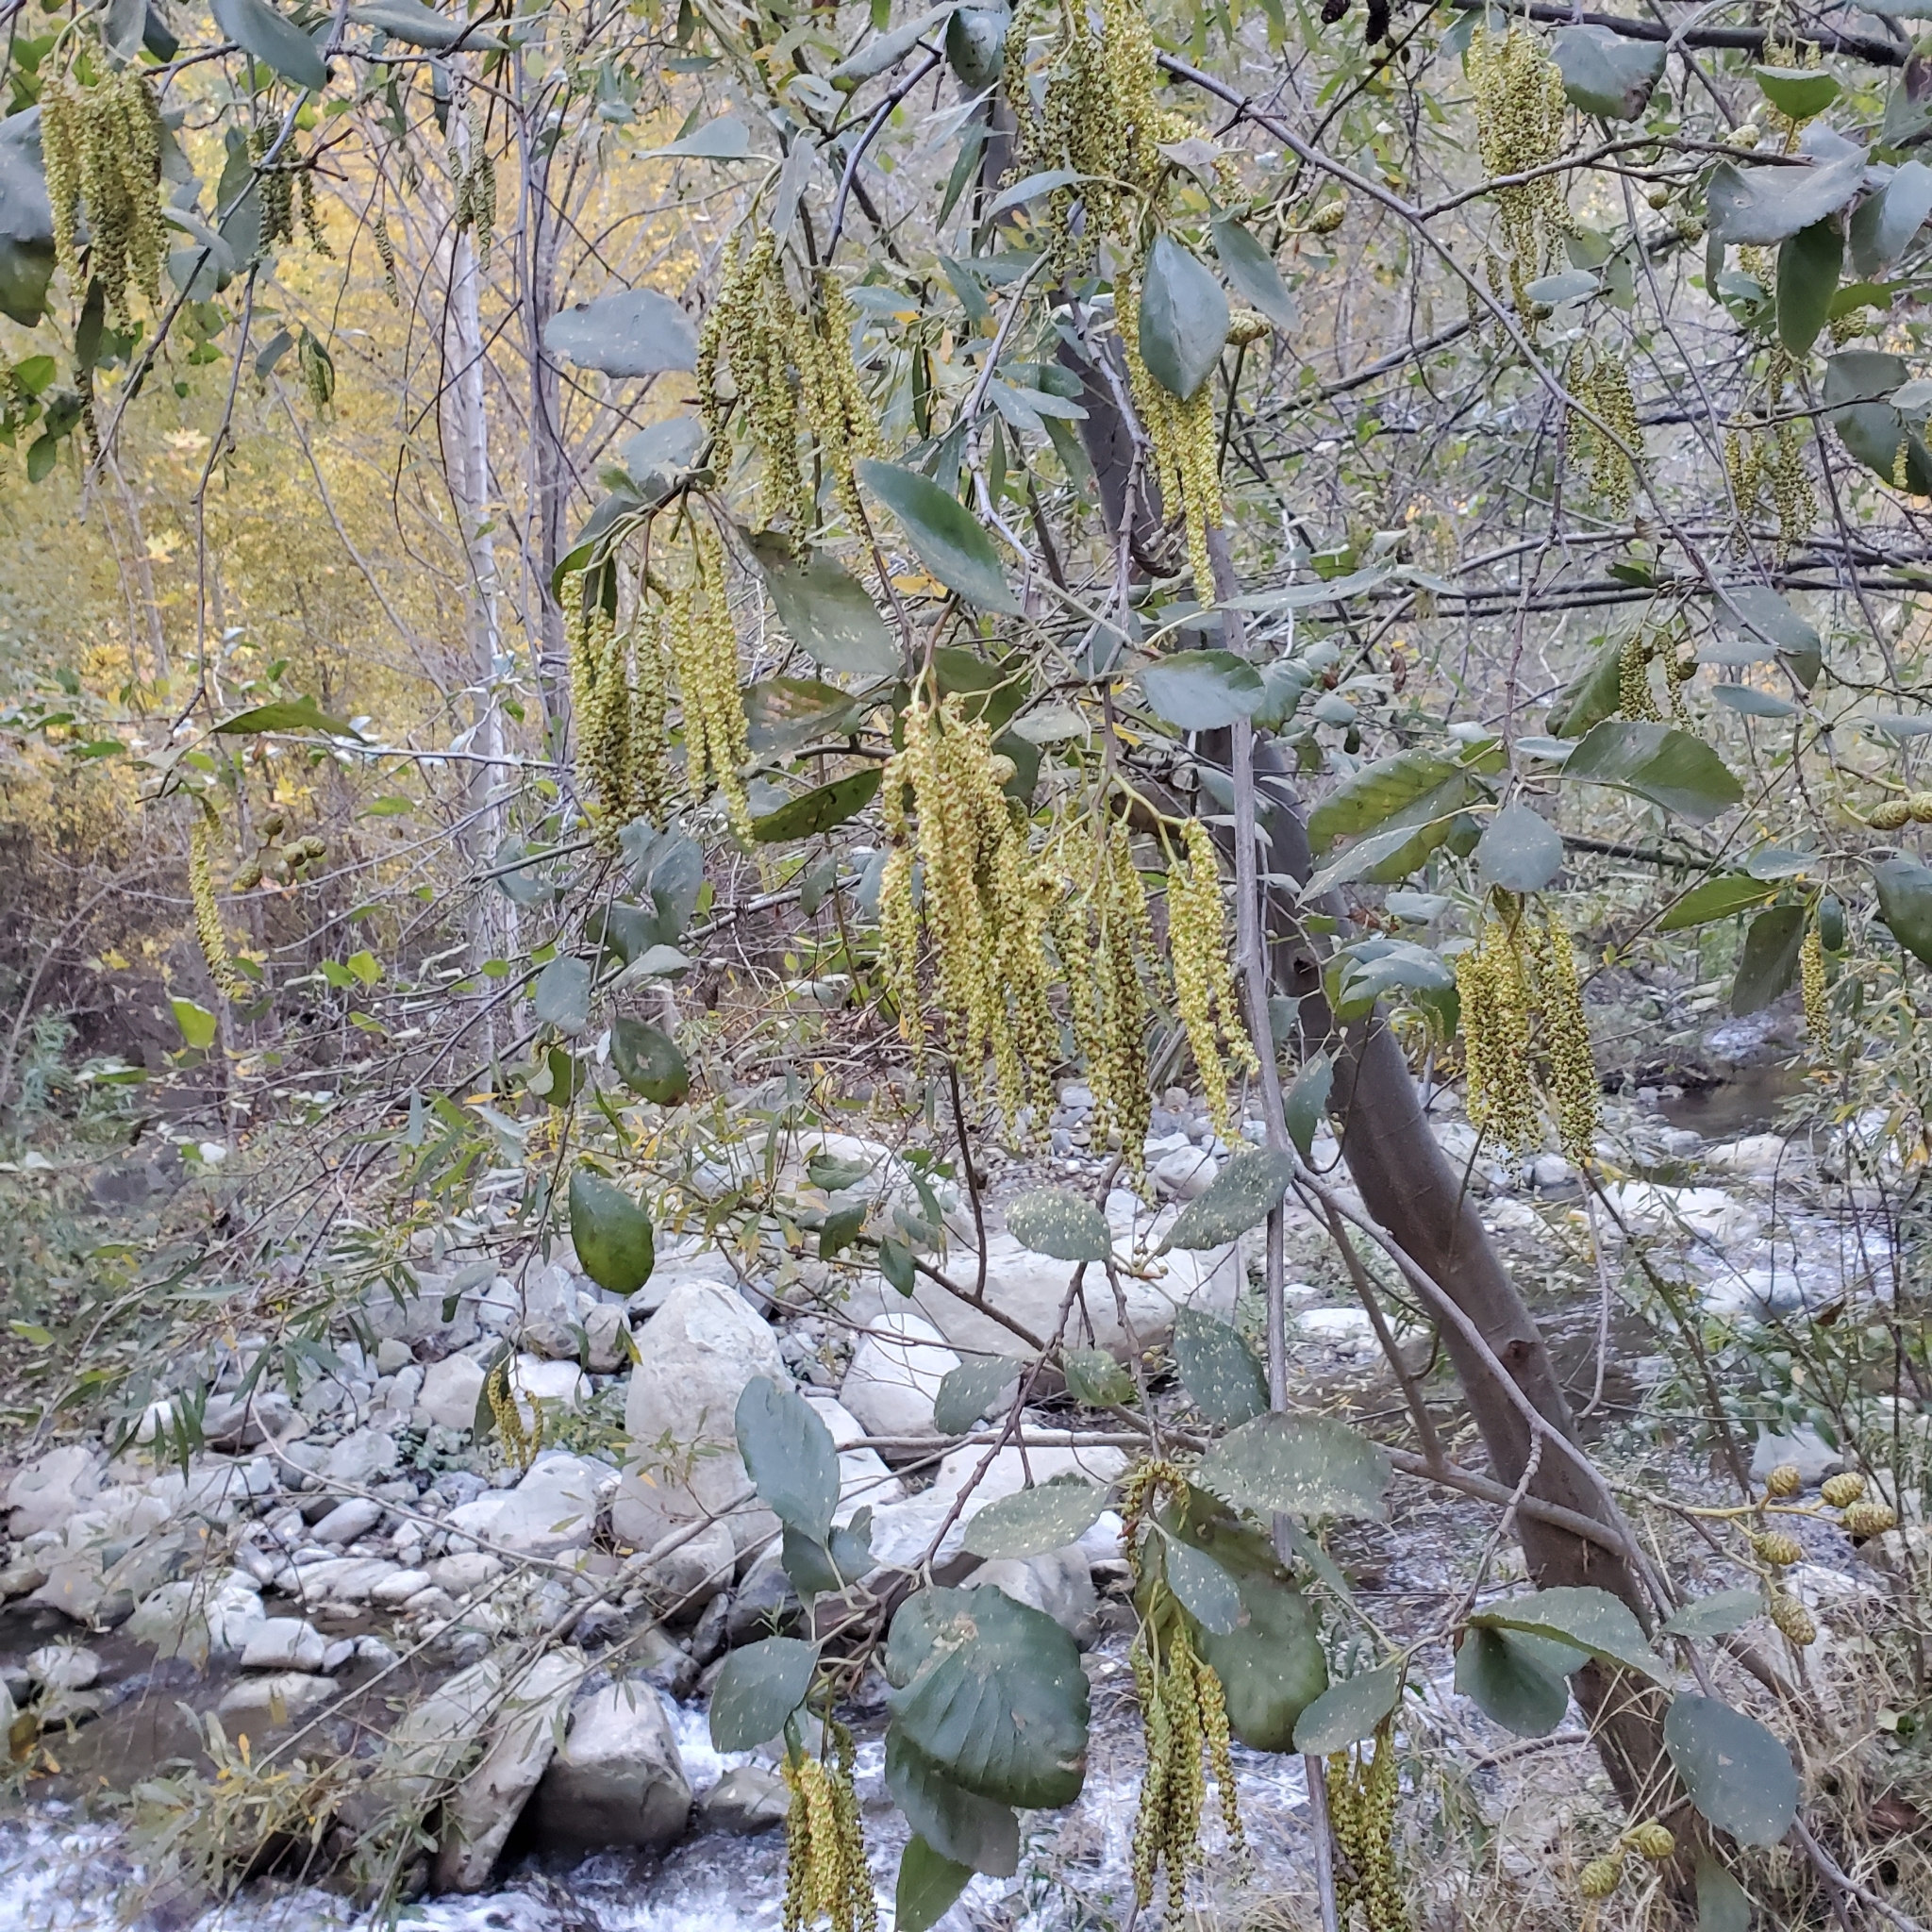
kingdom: Plantae
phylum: Tracheophyta
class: Magnoliopsida
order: Fagales
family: Betulaceae
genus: Alnus
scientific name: Alnus rhombifolia
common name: California alder
